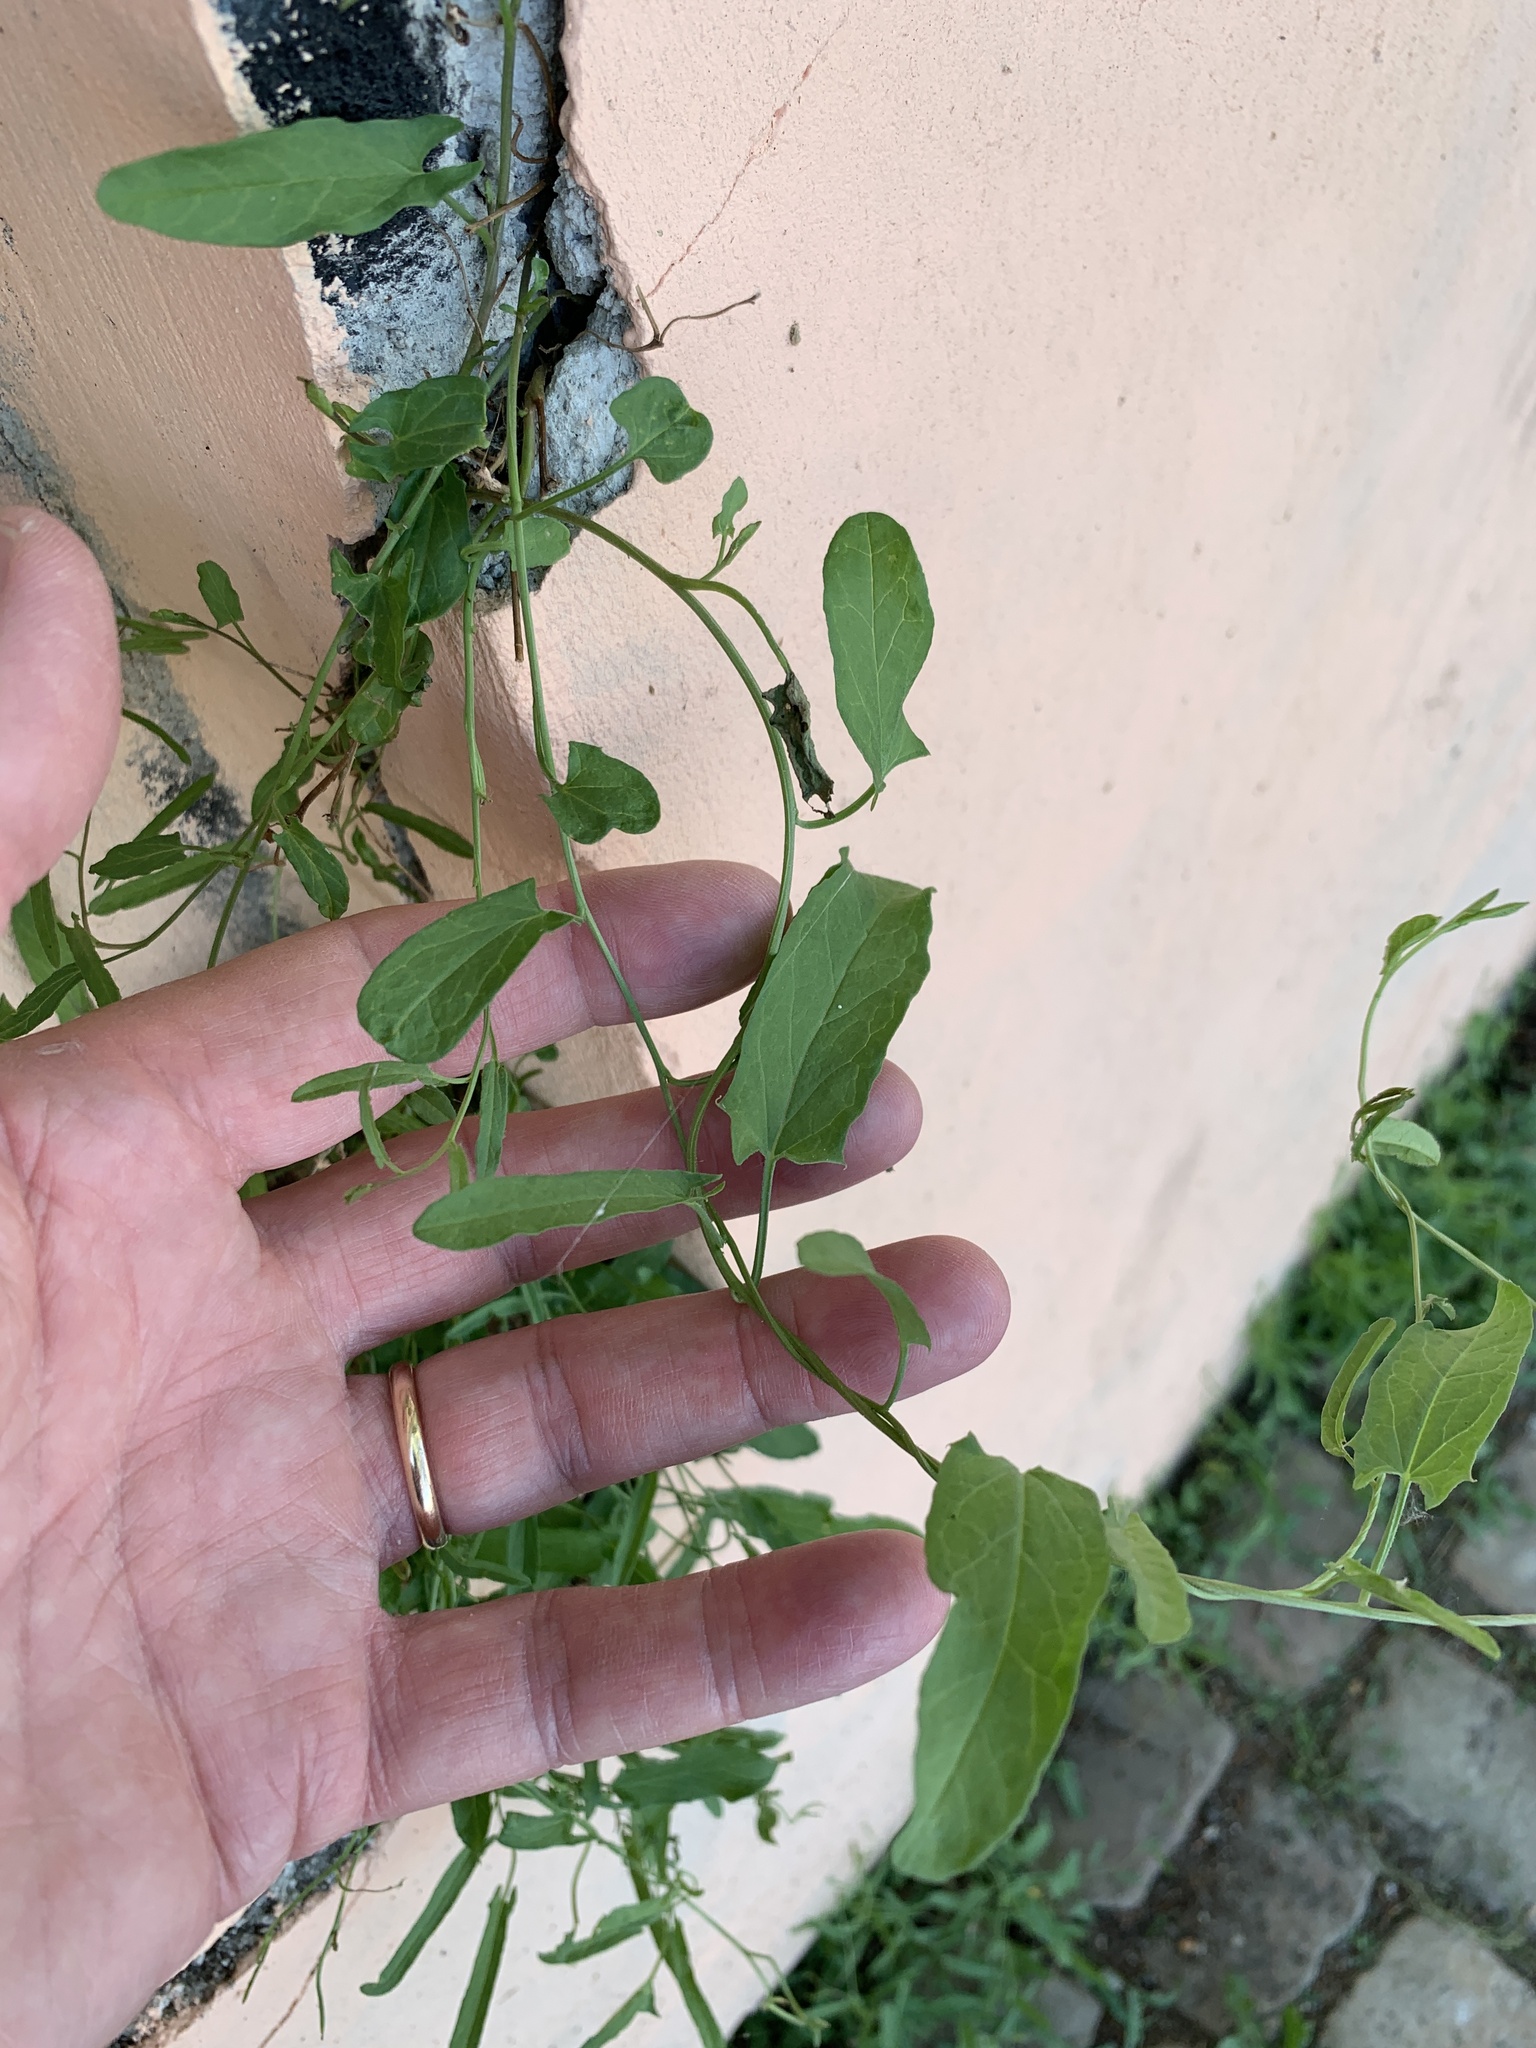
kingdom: Plantae
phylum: Tracheophyta
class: Magnoliopsida
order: Solanales
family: Convolvulaceae
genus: Convolvulus
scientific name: Convolvulus arvensis
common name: Field bindweed
